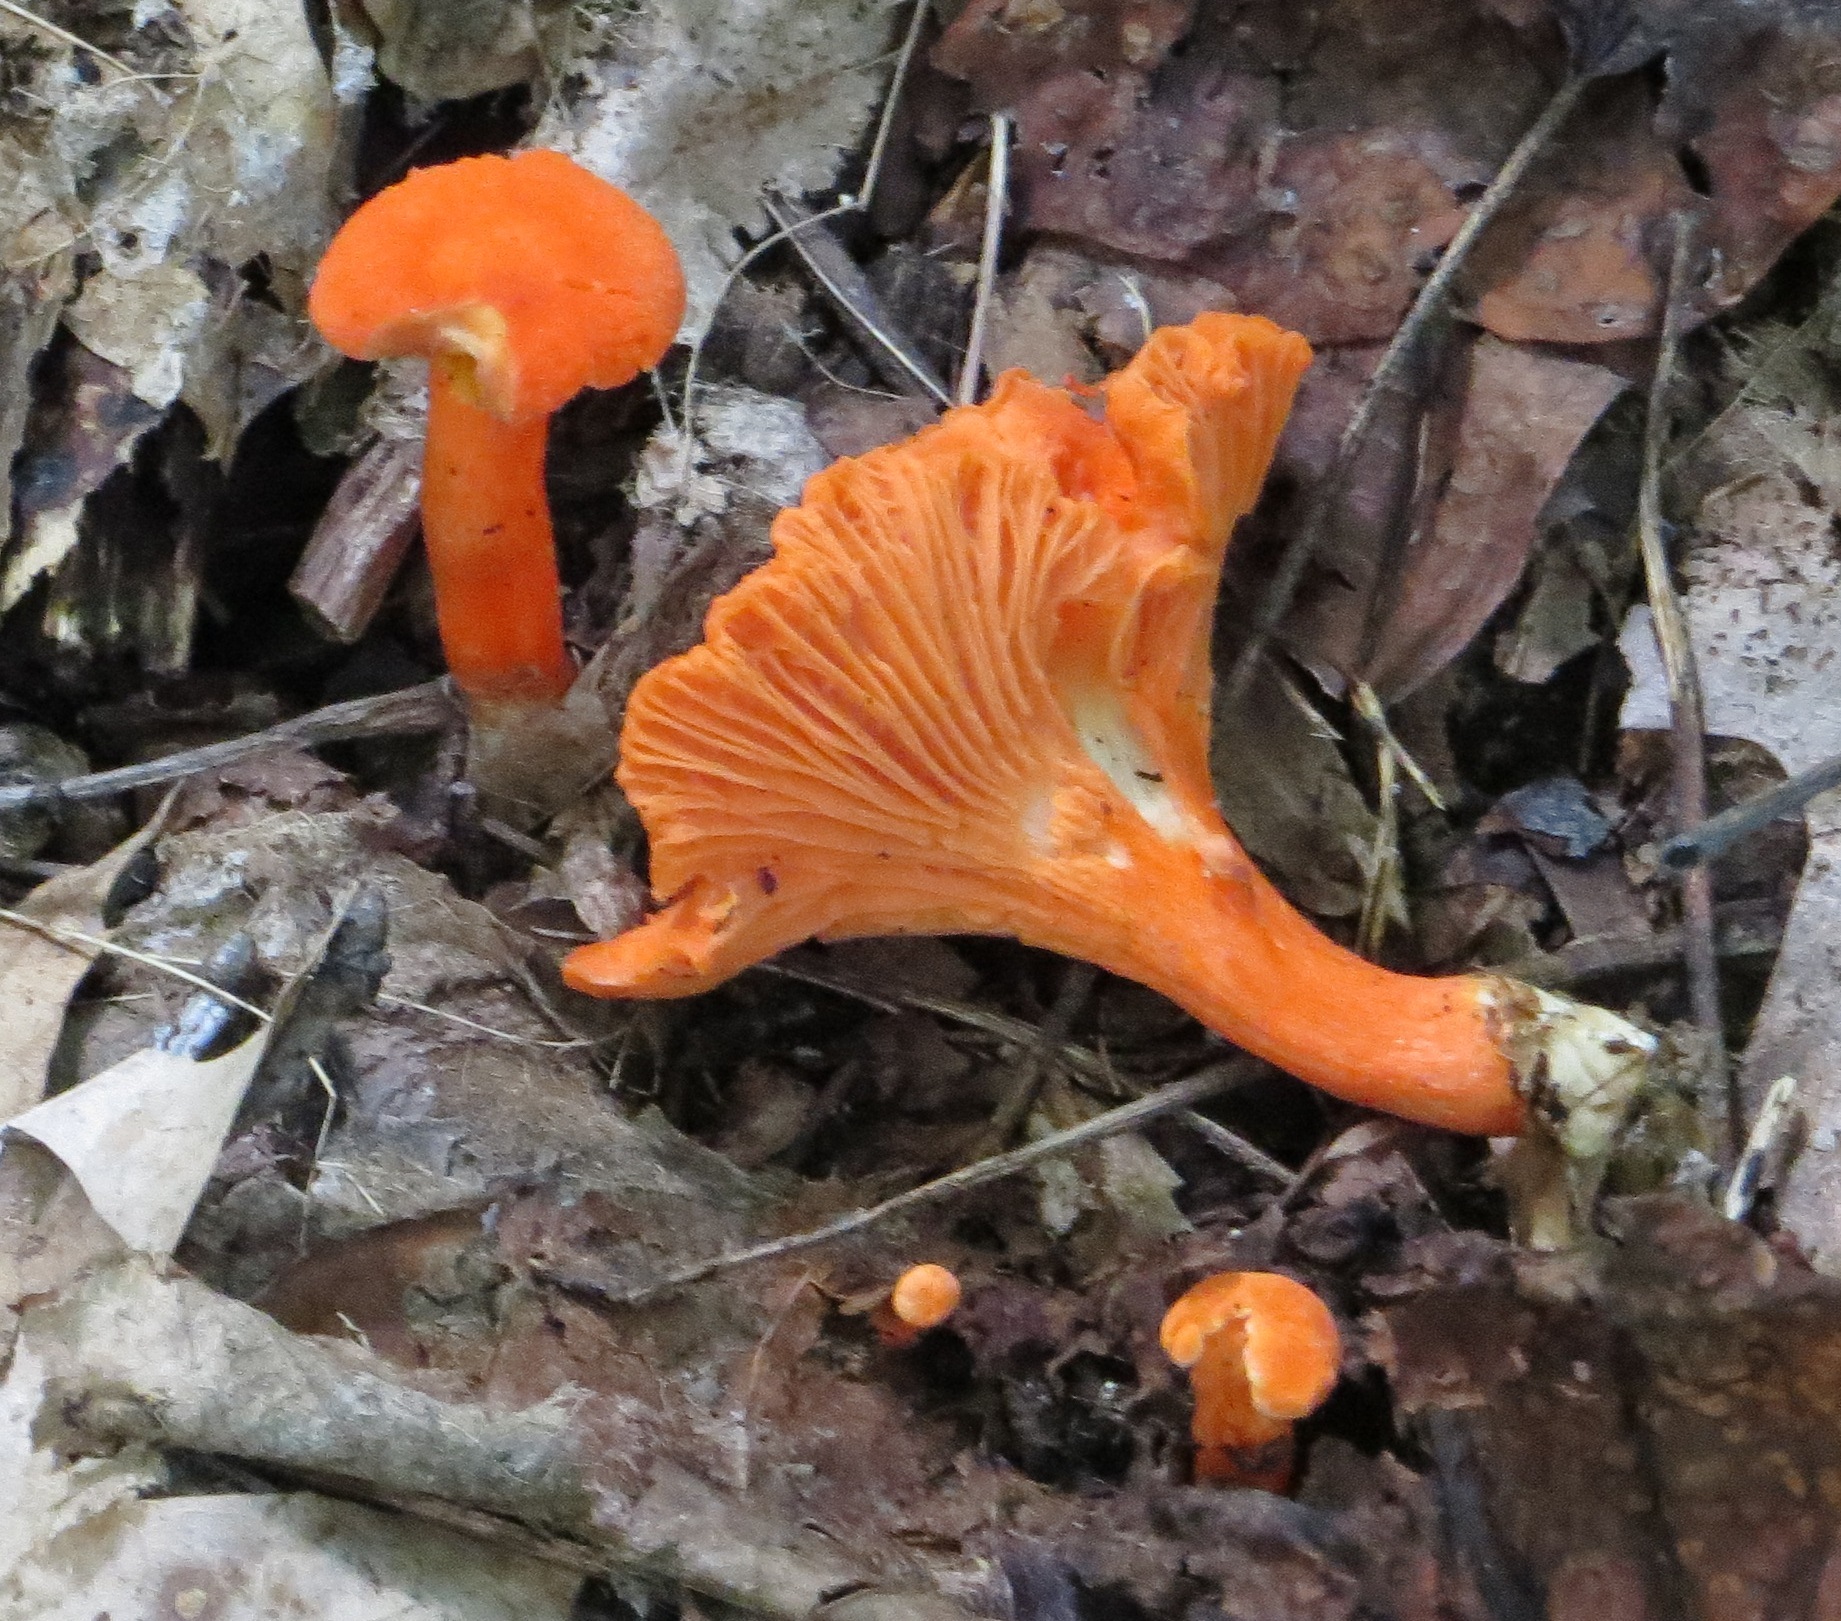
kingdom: Fungi
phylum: Basidiomycota
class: Agaricomycetes
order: Cantharellales
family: Hydnaceae
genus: Cantharellus
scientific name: Cantharellus cinnabarinus
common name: Cinnabar chanterelle
